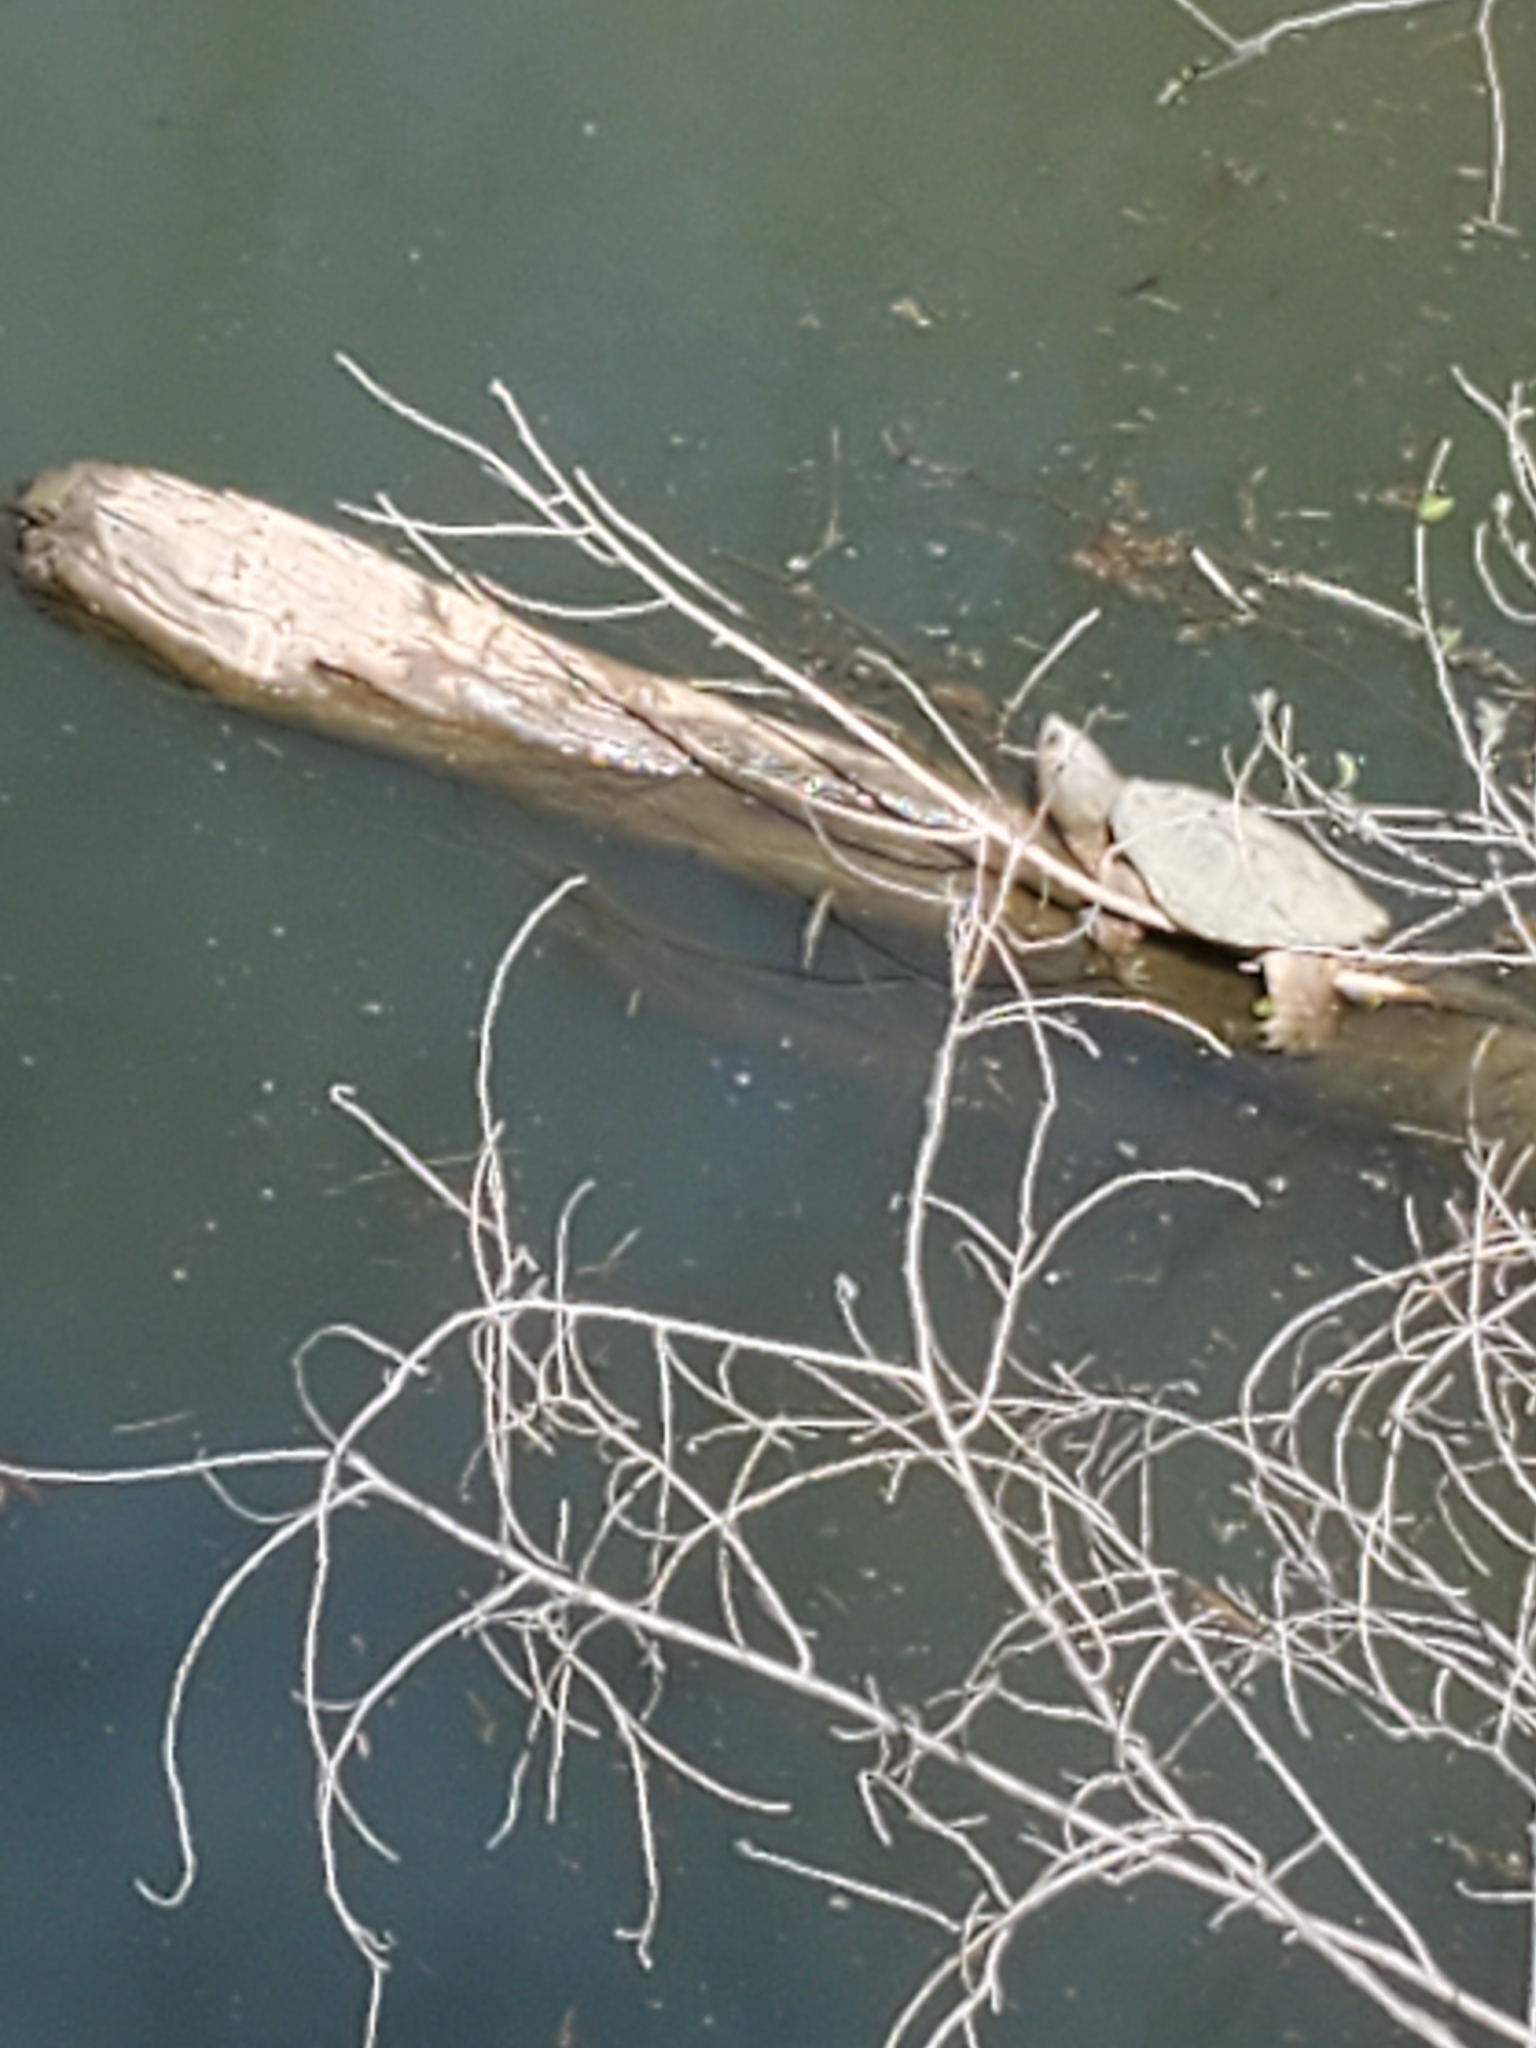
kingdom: Animalia
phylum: Chordata
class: Testudines
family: Chelydridae
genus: Chelydra
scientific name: Chelydra serpentina
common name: Common snapping turtle
